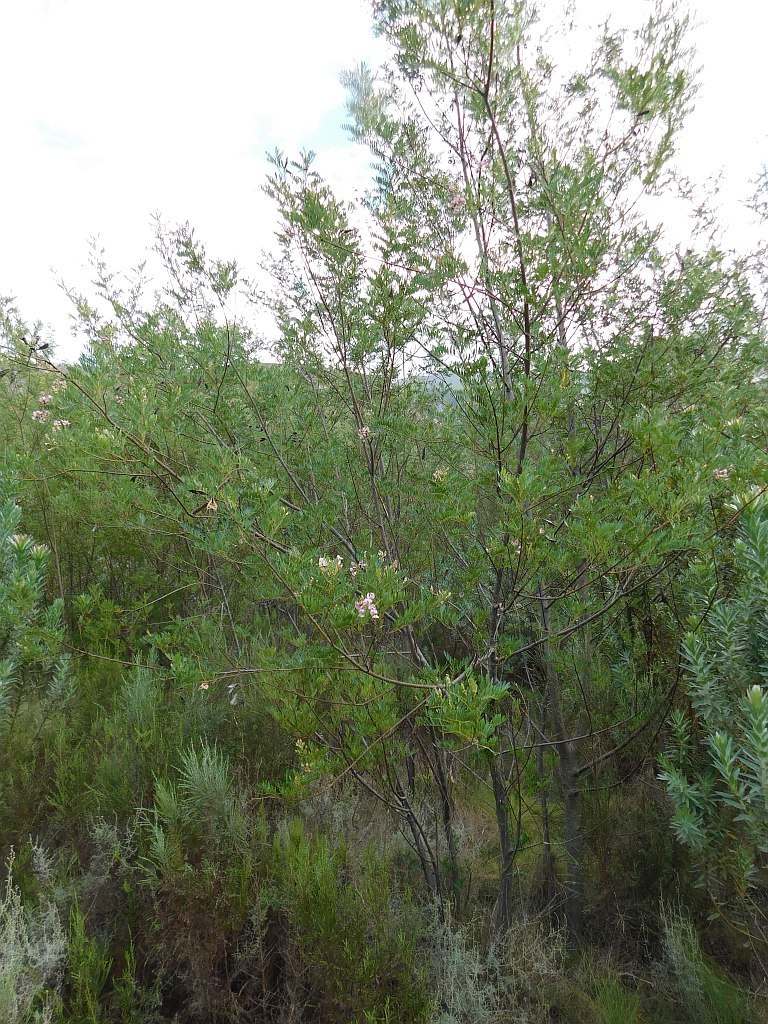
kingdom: Plantae
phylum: Tracheophyta
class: Magnoliopsida
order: Fabales
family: Fabaceae
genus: Virgilia
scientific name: Virgilia oroboides
